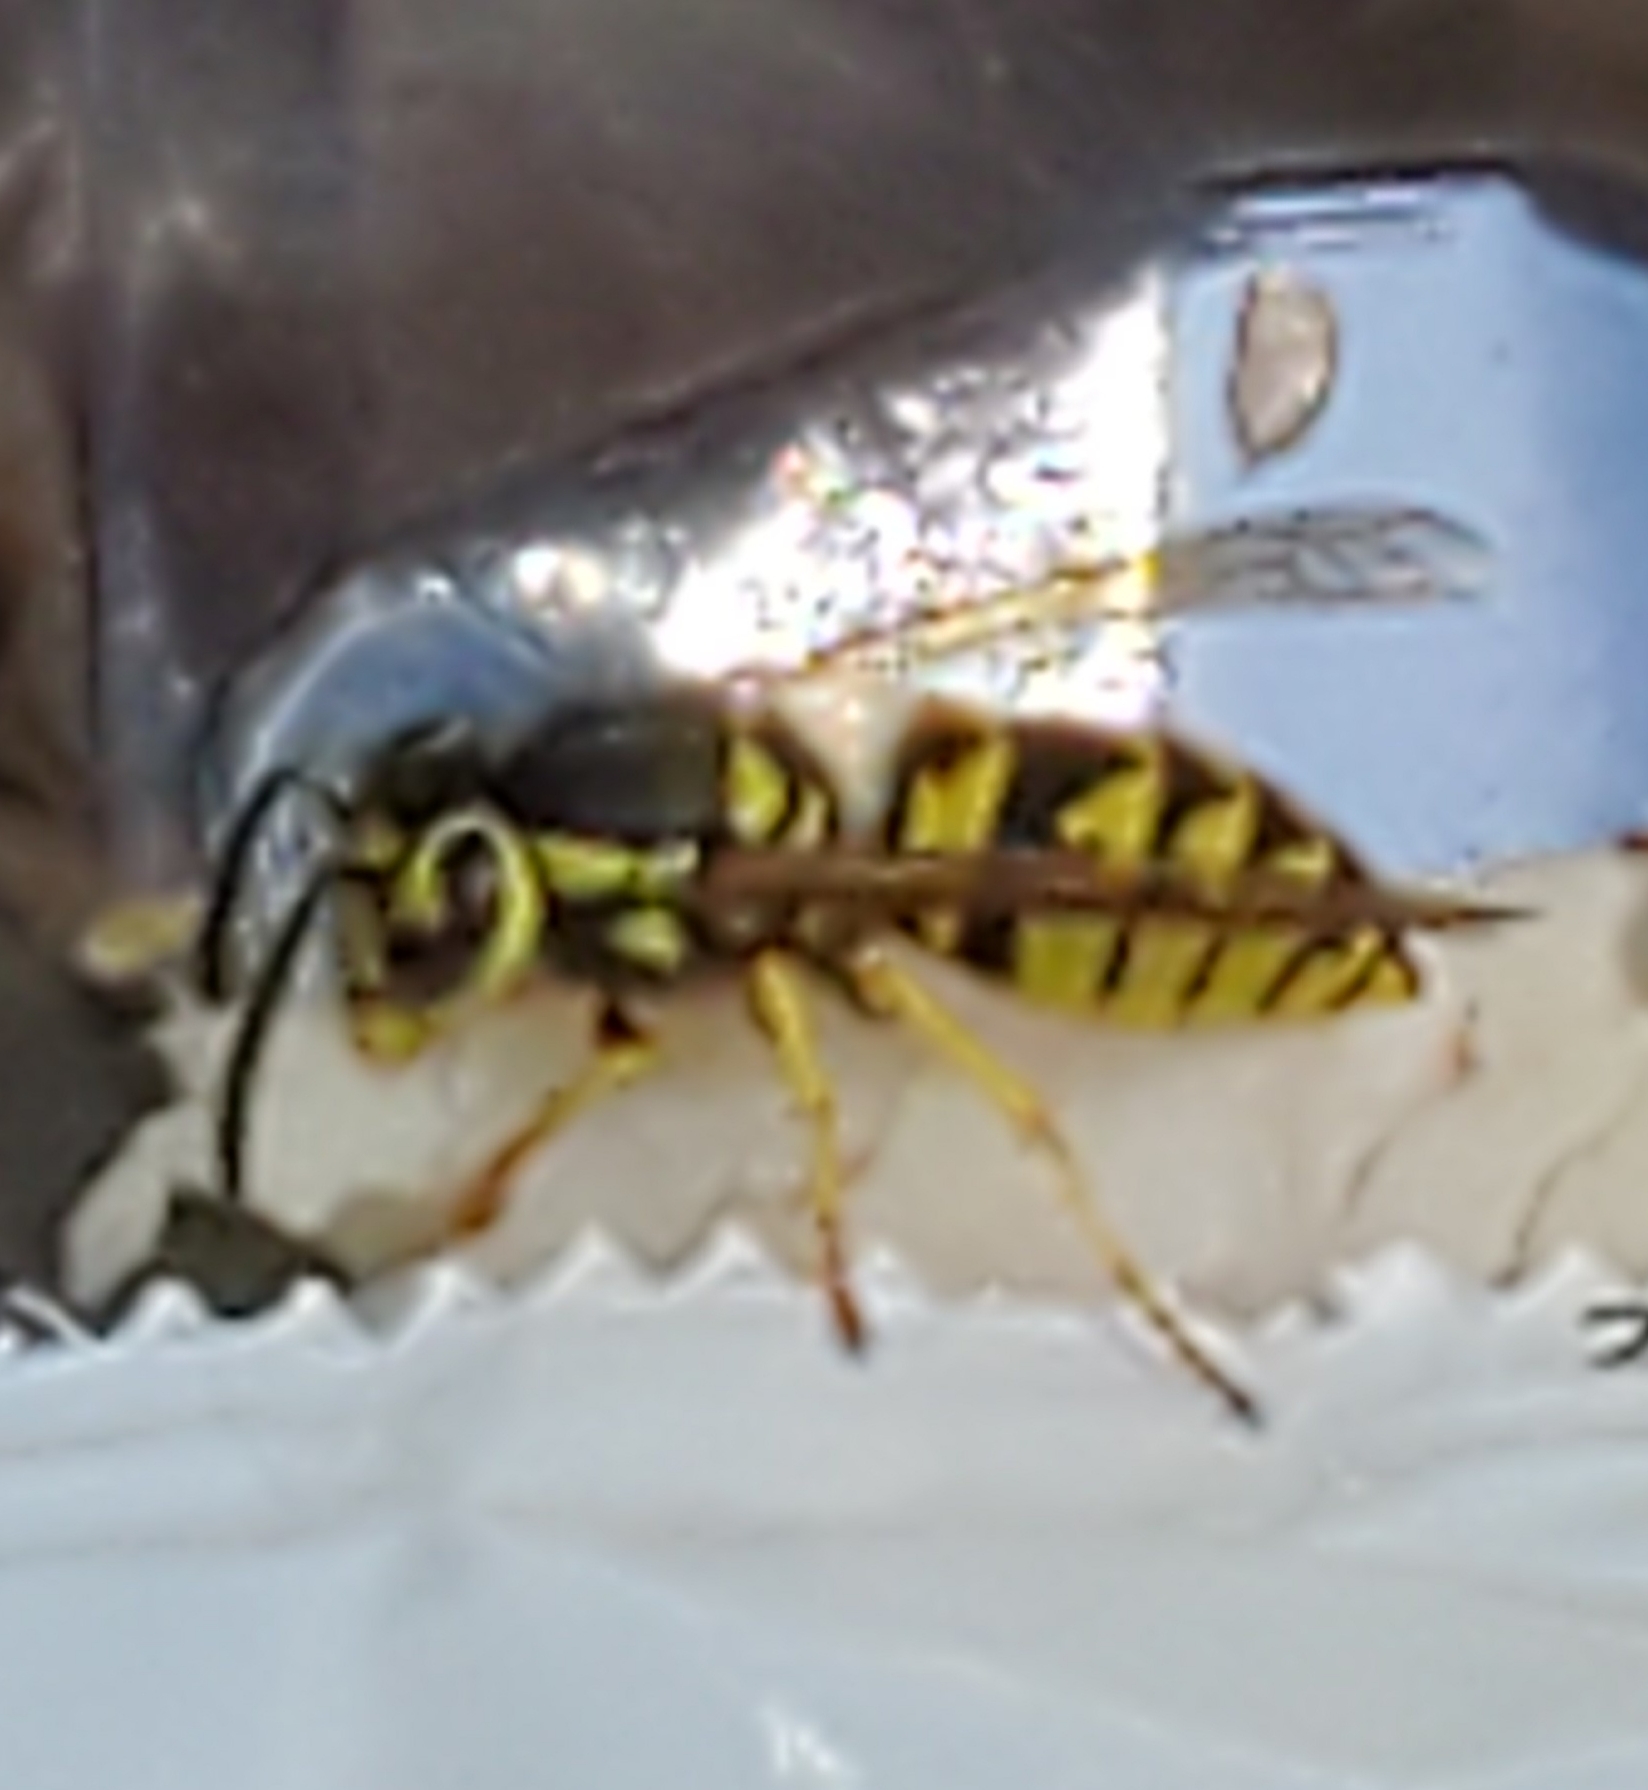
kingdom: Animalia
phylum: Arthropoda
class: Insecta
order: Hymenoptera
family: Vespidae
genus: Vespula
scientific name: Vespula pensylvanica
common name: Western yellowjacket
